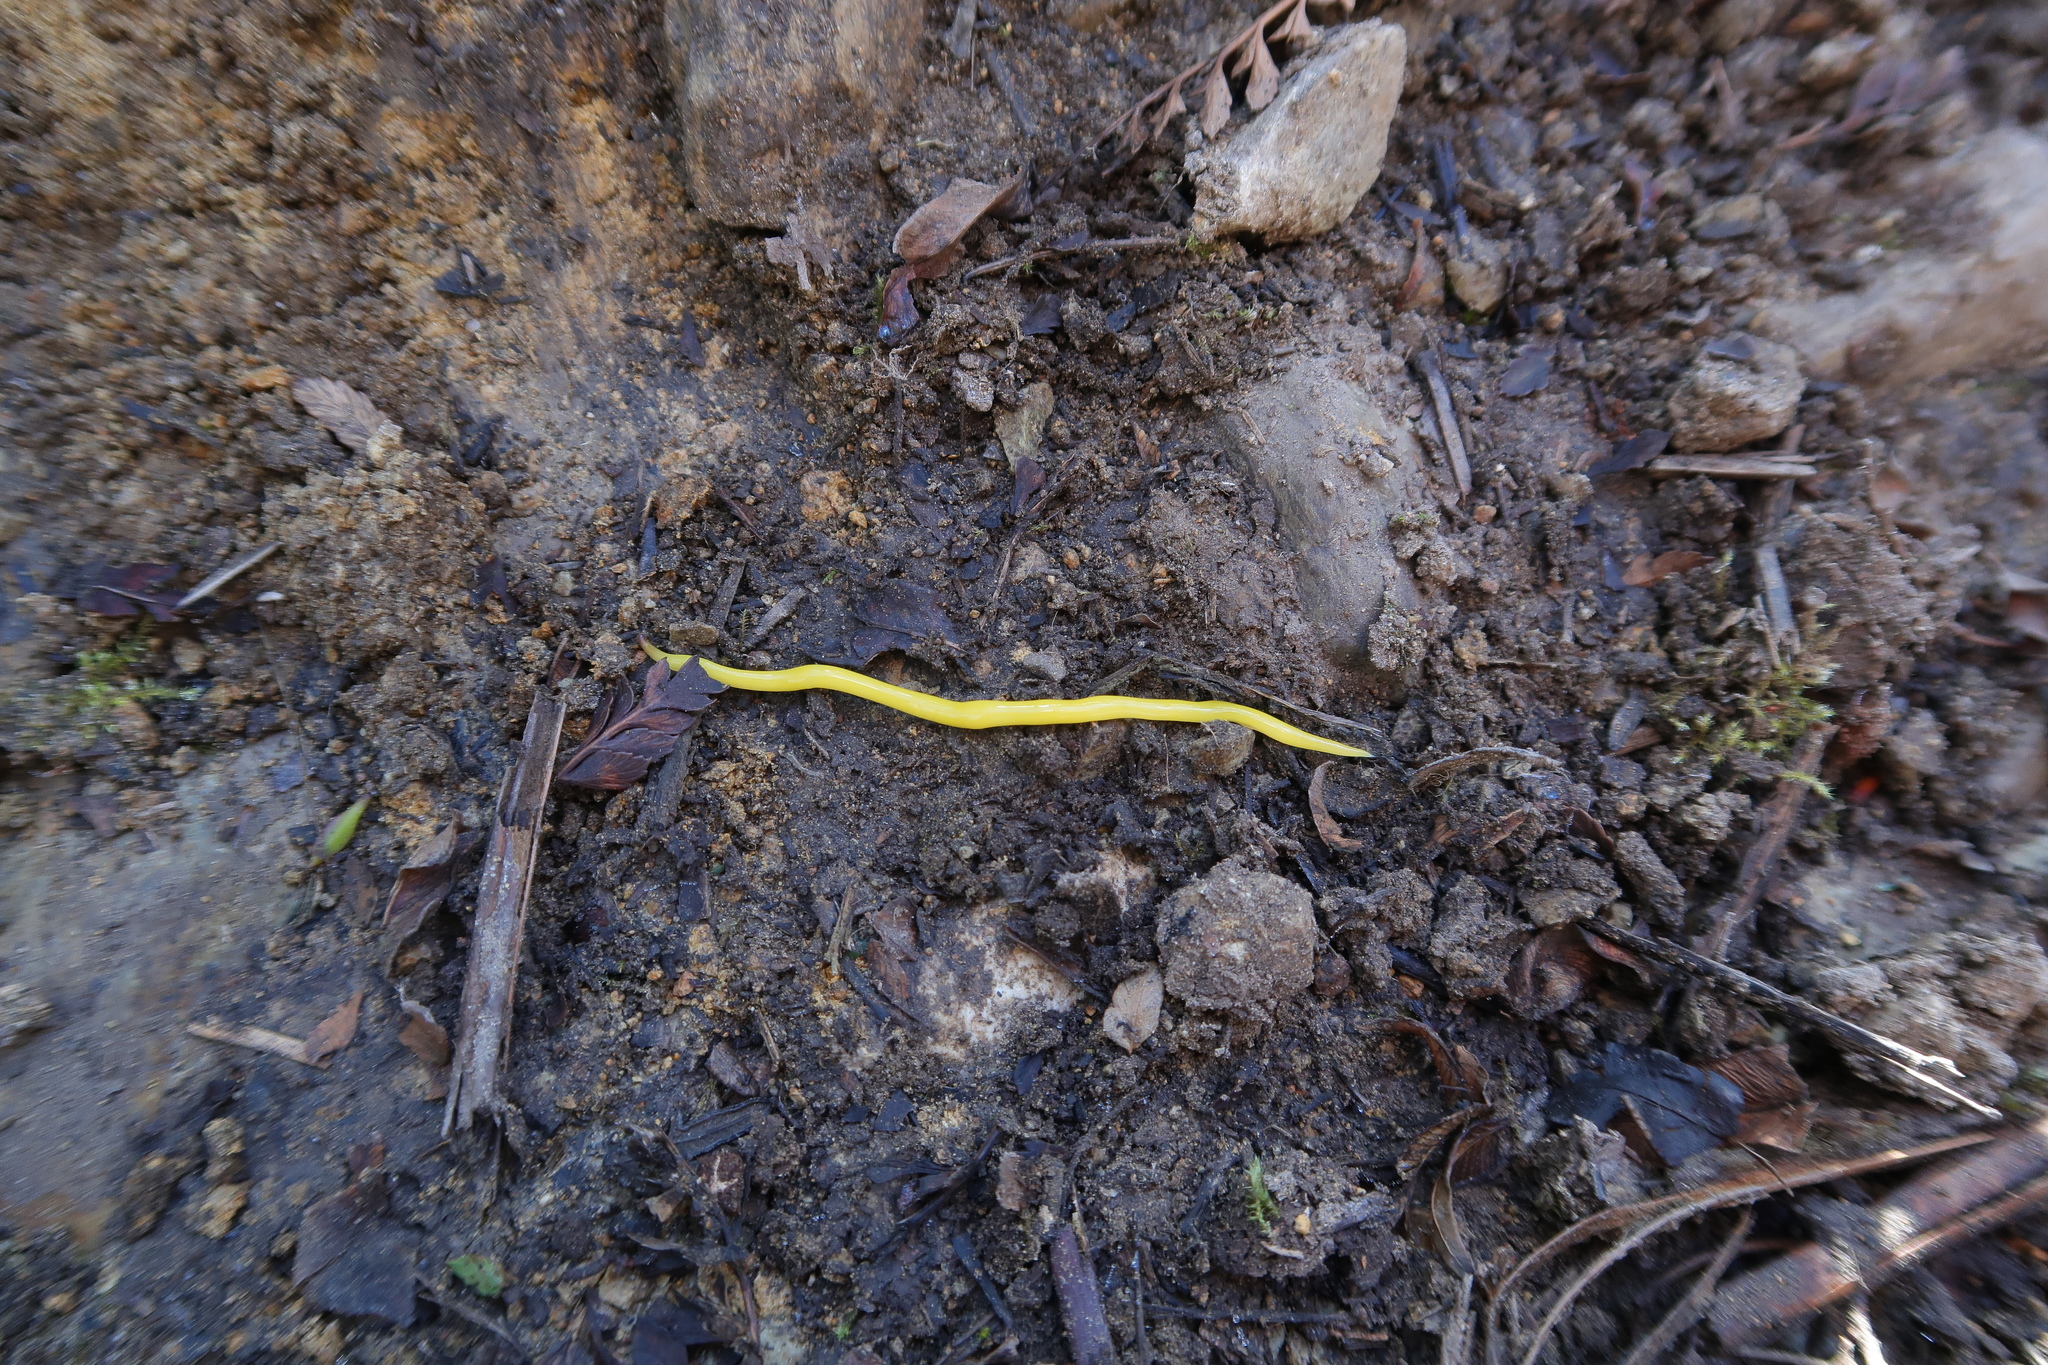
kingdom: Animalia
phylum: Platyhelminthes
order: Tricladida
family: Geoplanidae
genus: Fletchamia
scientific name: Fletchamia sugdeni
